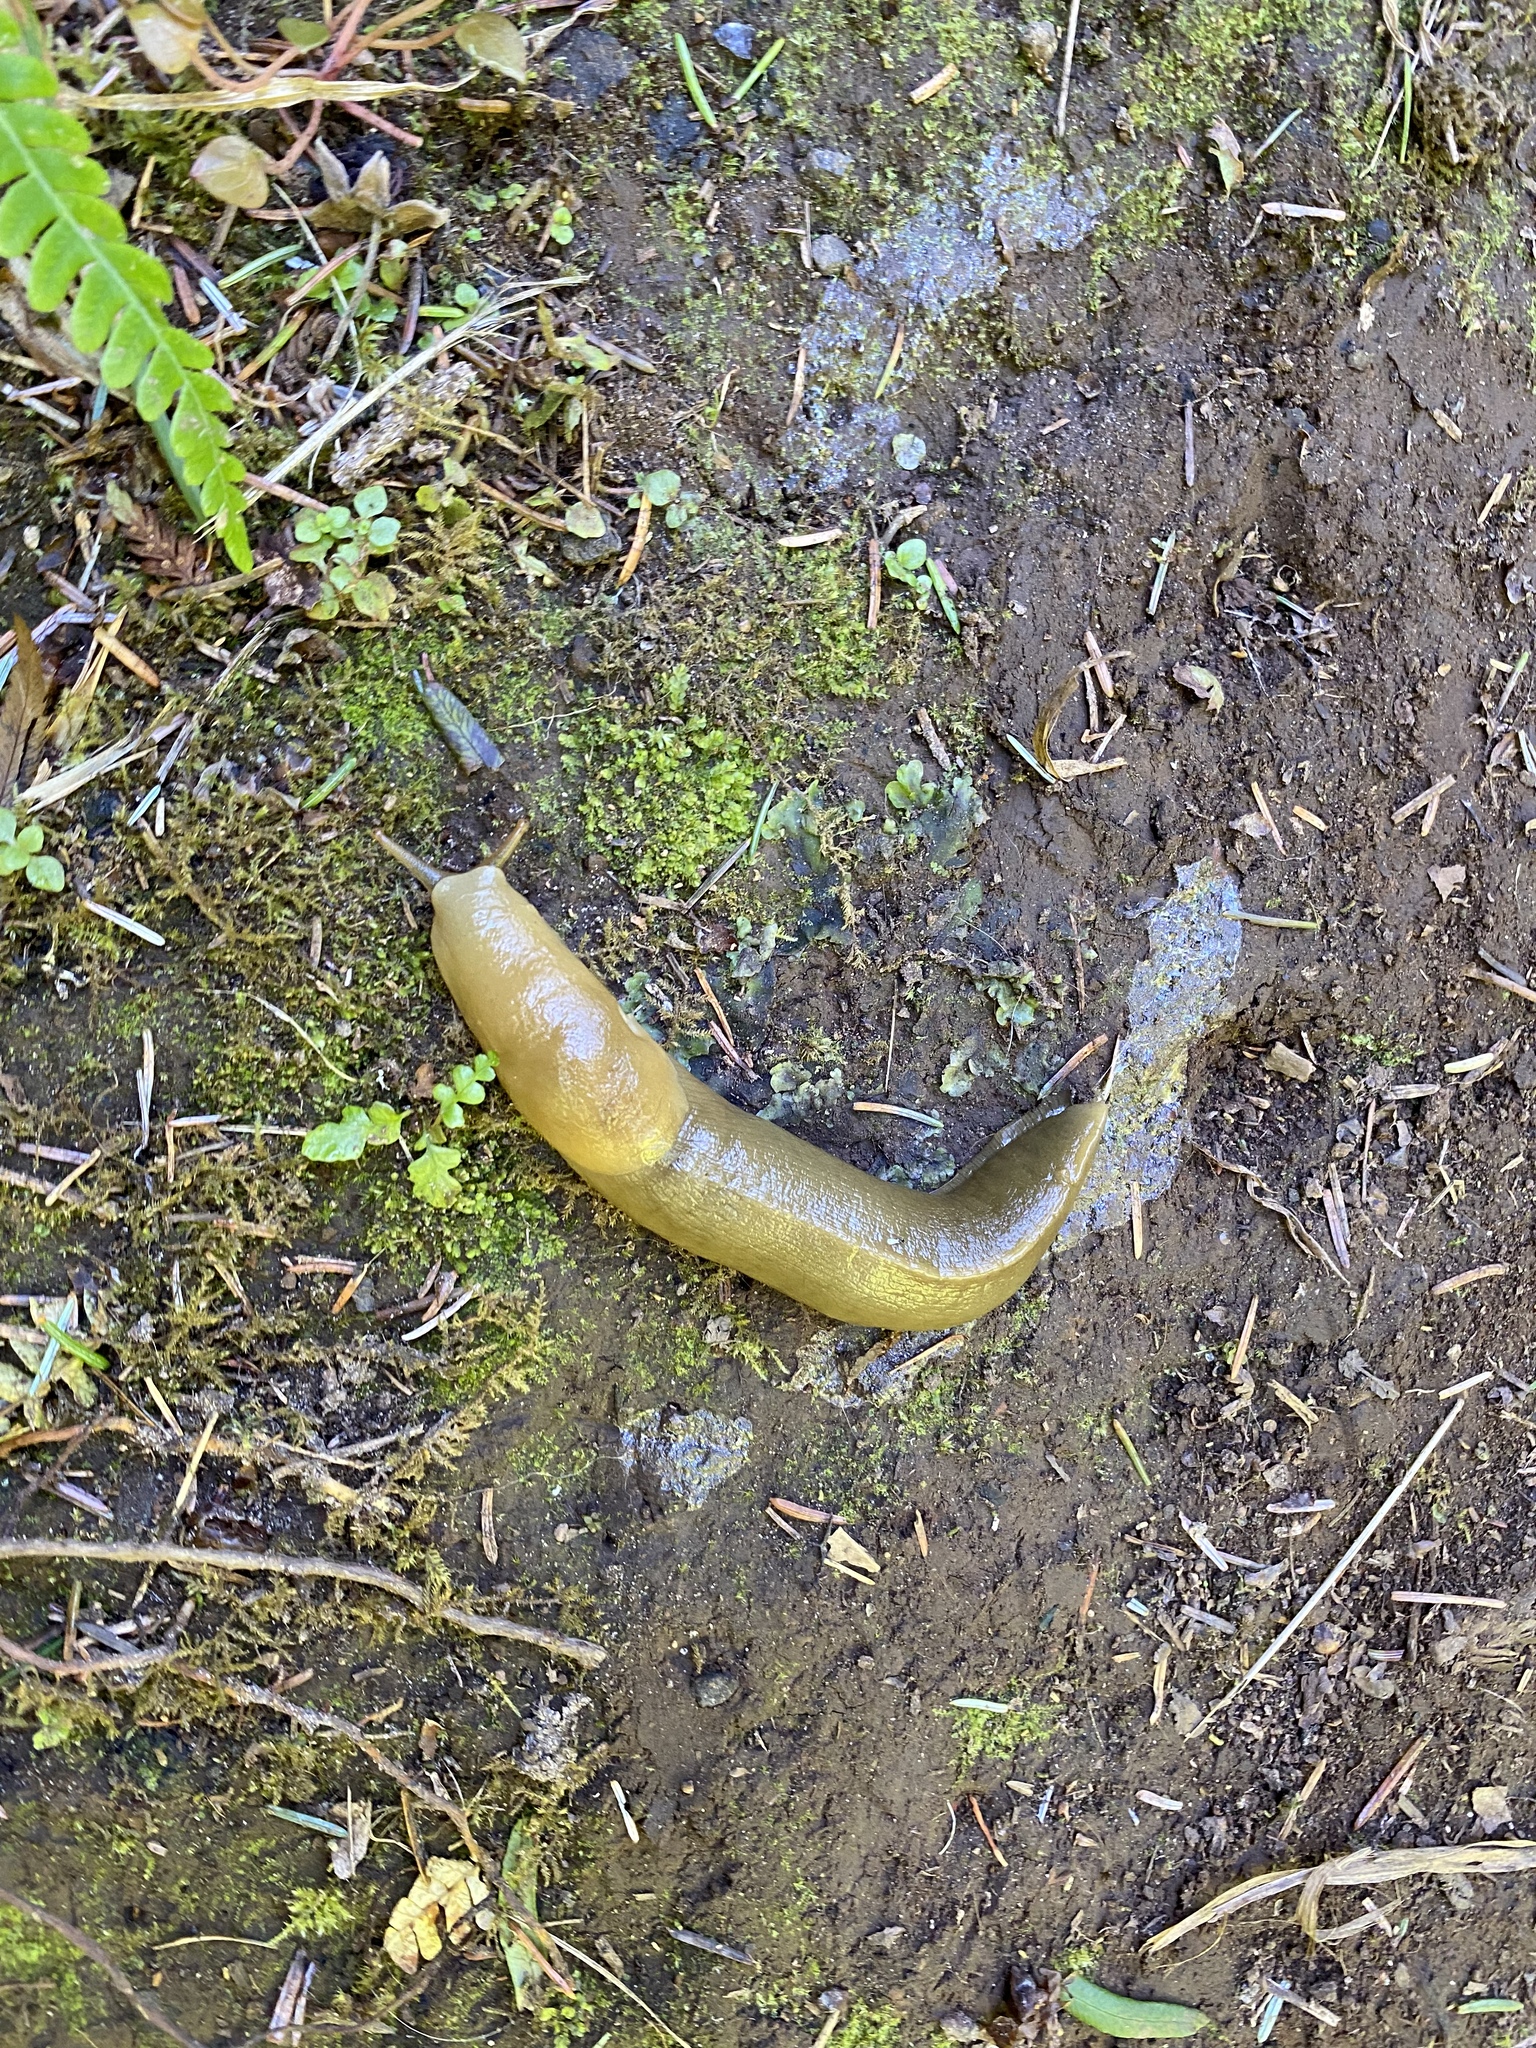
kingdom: Animalia
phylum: Mollusca
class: Gastropoda
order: Stylommatophora
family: Ariolimacidae
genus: Ariolimax
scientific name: Ariolimax columbianus
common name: Pacific banana slug
